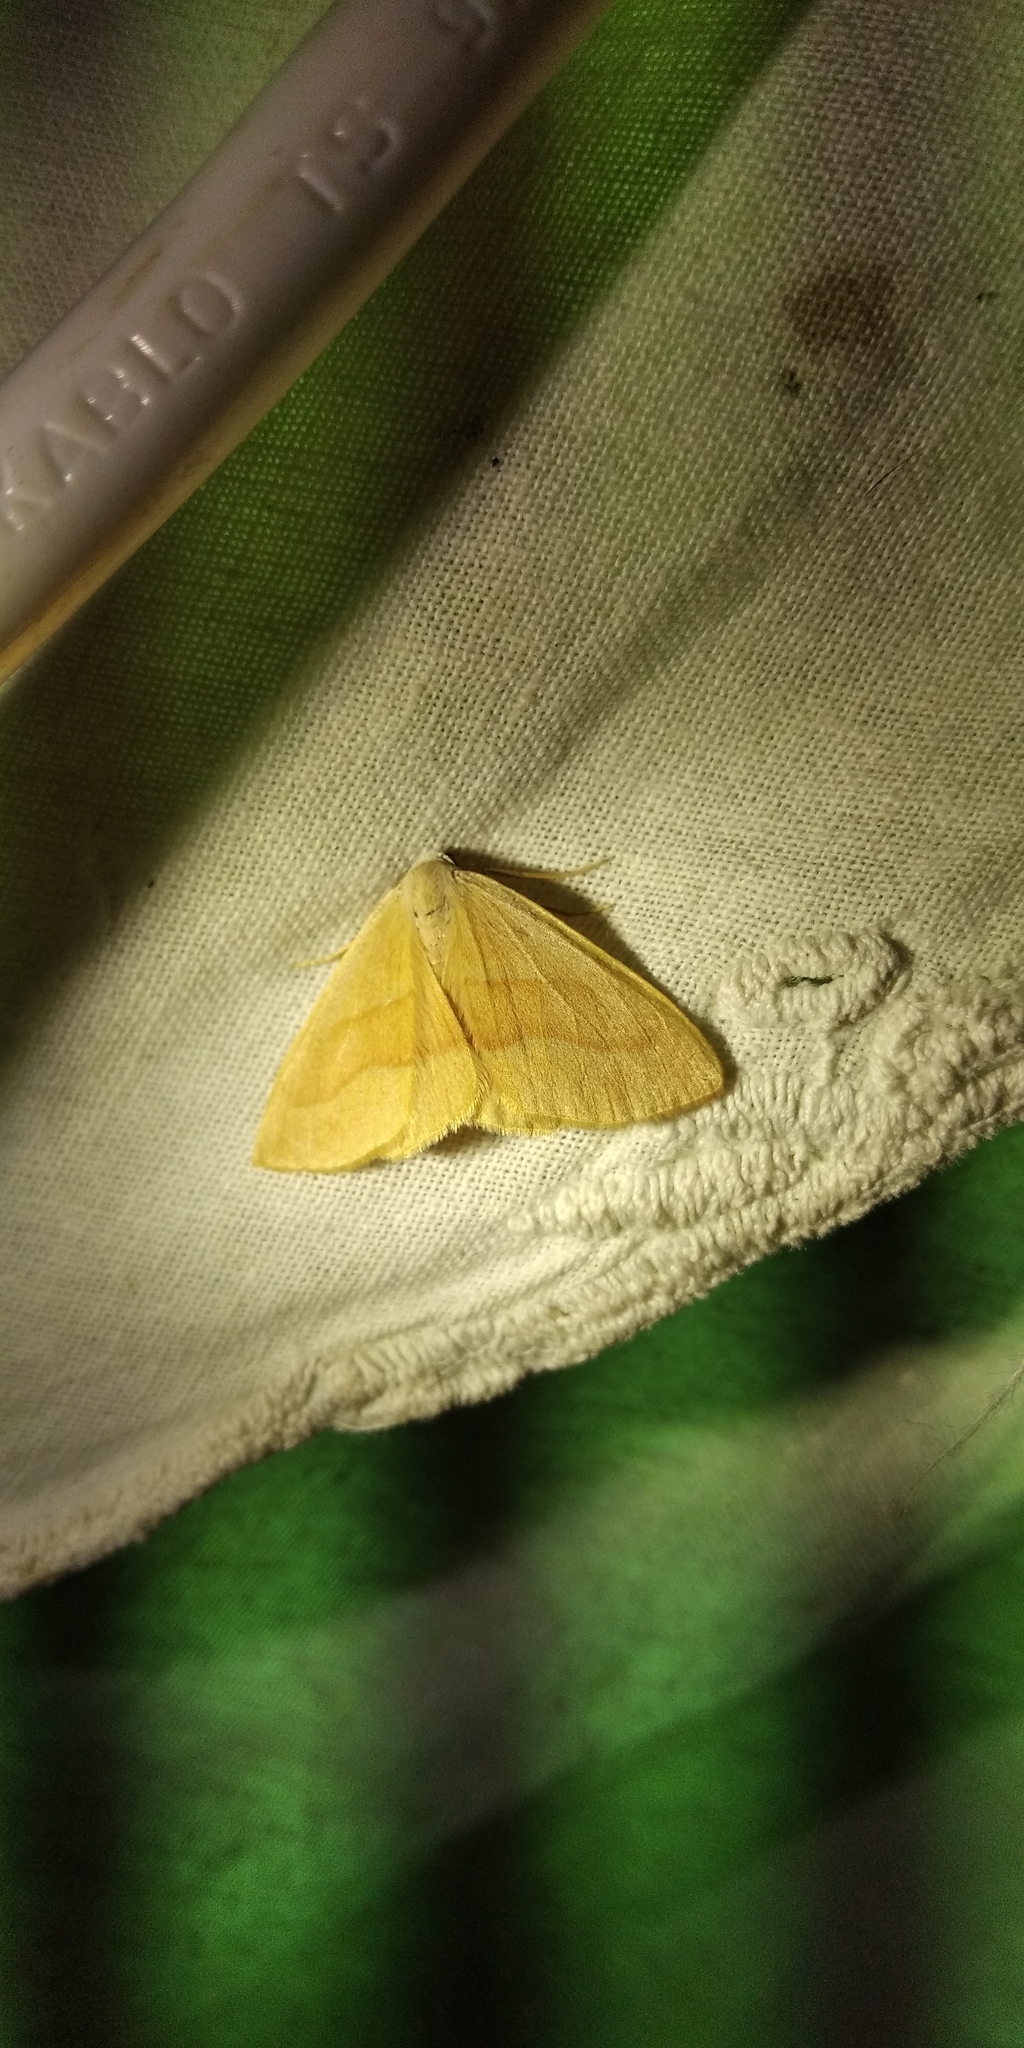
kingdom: Animalia
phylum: Arthropoda
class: Insecta
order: Lepidoptera
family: Geometridae
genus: Hylaea
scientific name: Hylaea fasciaria
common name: Barred red
